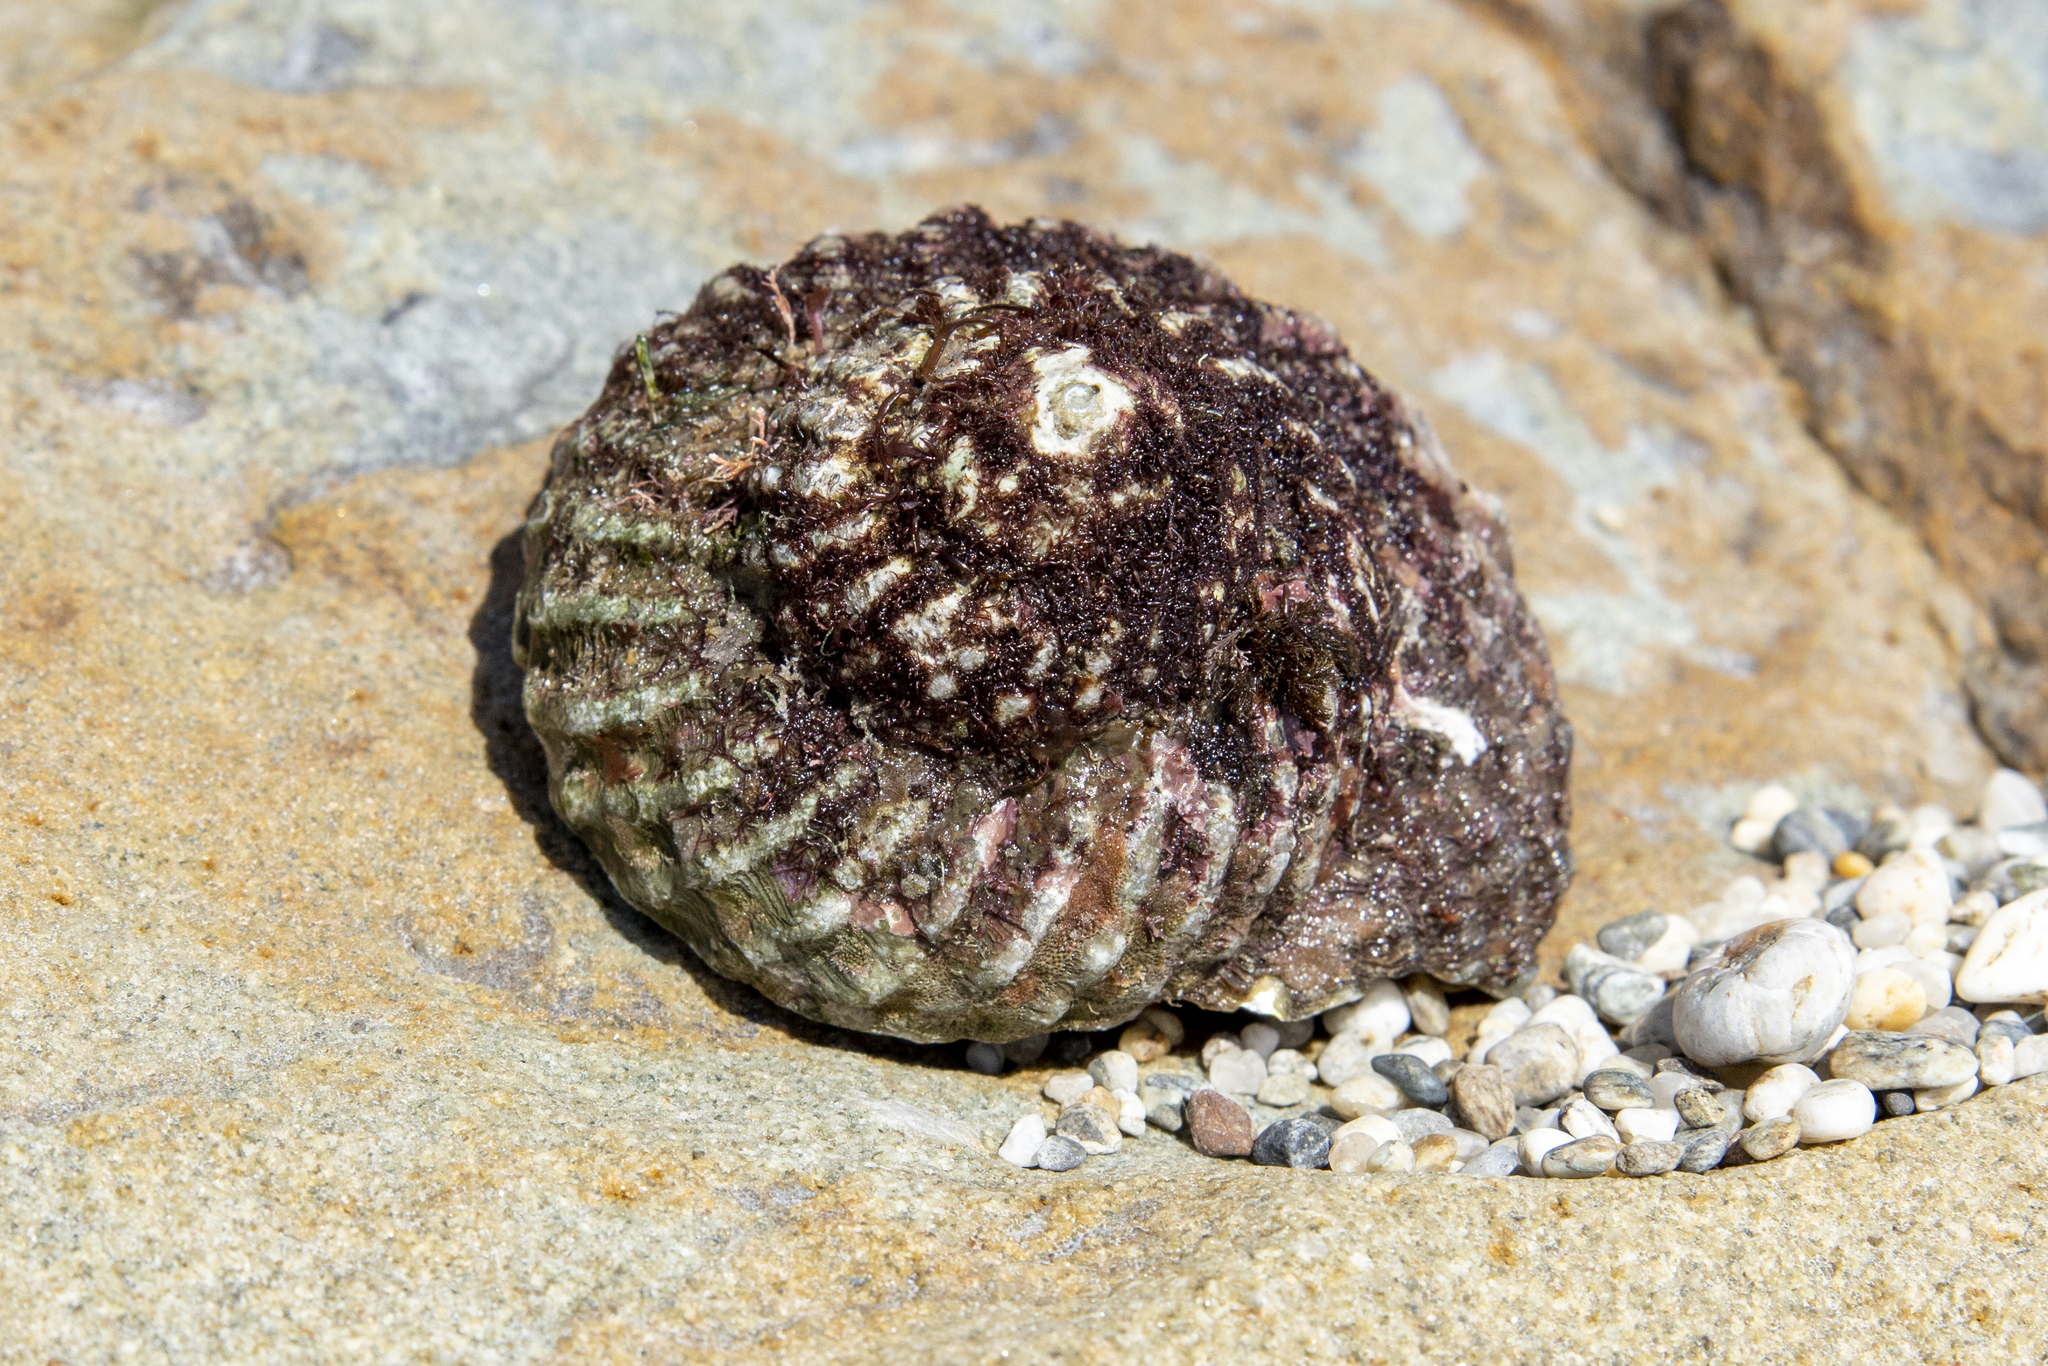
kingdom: Animalia
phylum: Mollusca
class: Gastropoda
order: Trochida
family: Turbinidae
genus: Cookia
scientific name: Cookia sulcata
